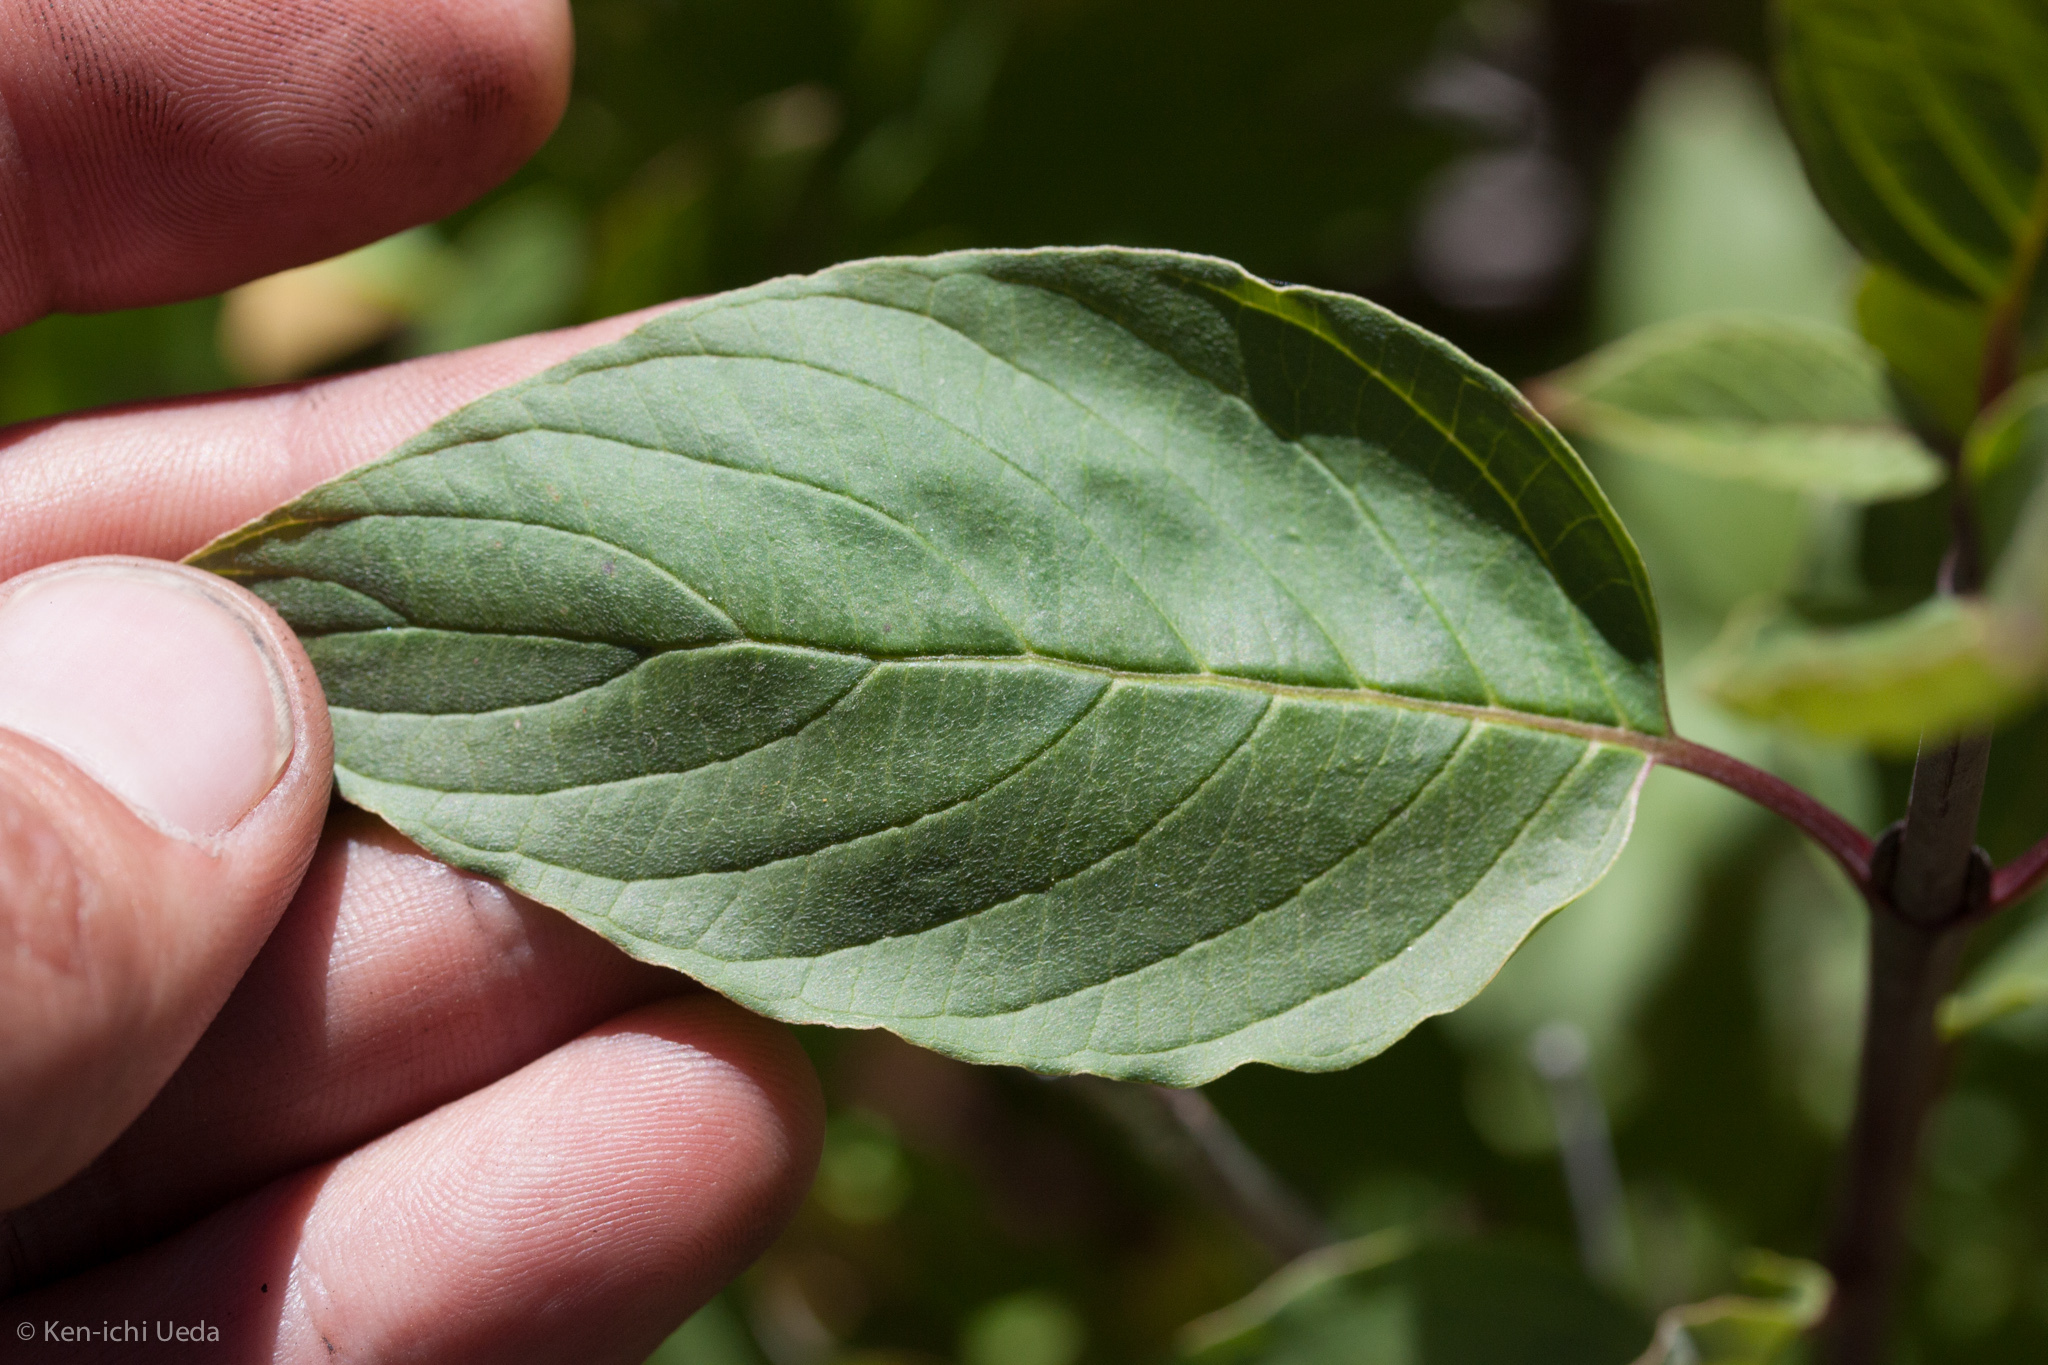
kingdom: Plantae
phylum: Tracheophyta
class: Magnoliopsida
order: Cornales
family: Cornaceae
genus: Cornus
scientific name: Cornus sericea
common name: Red-osier dogwood
